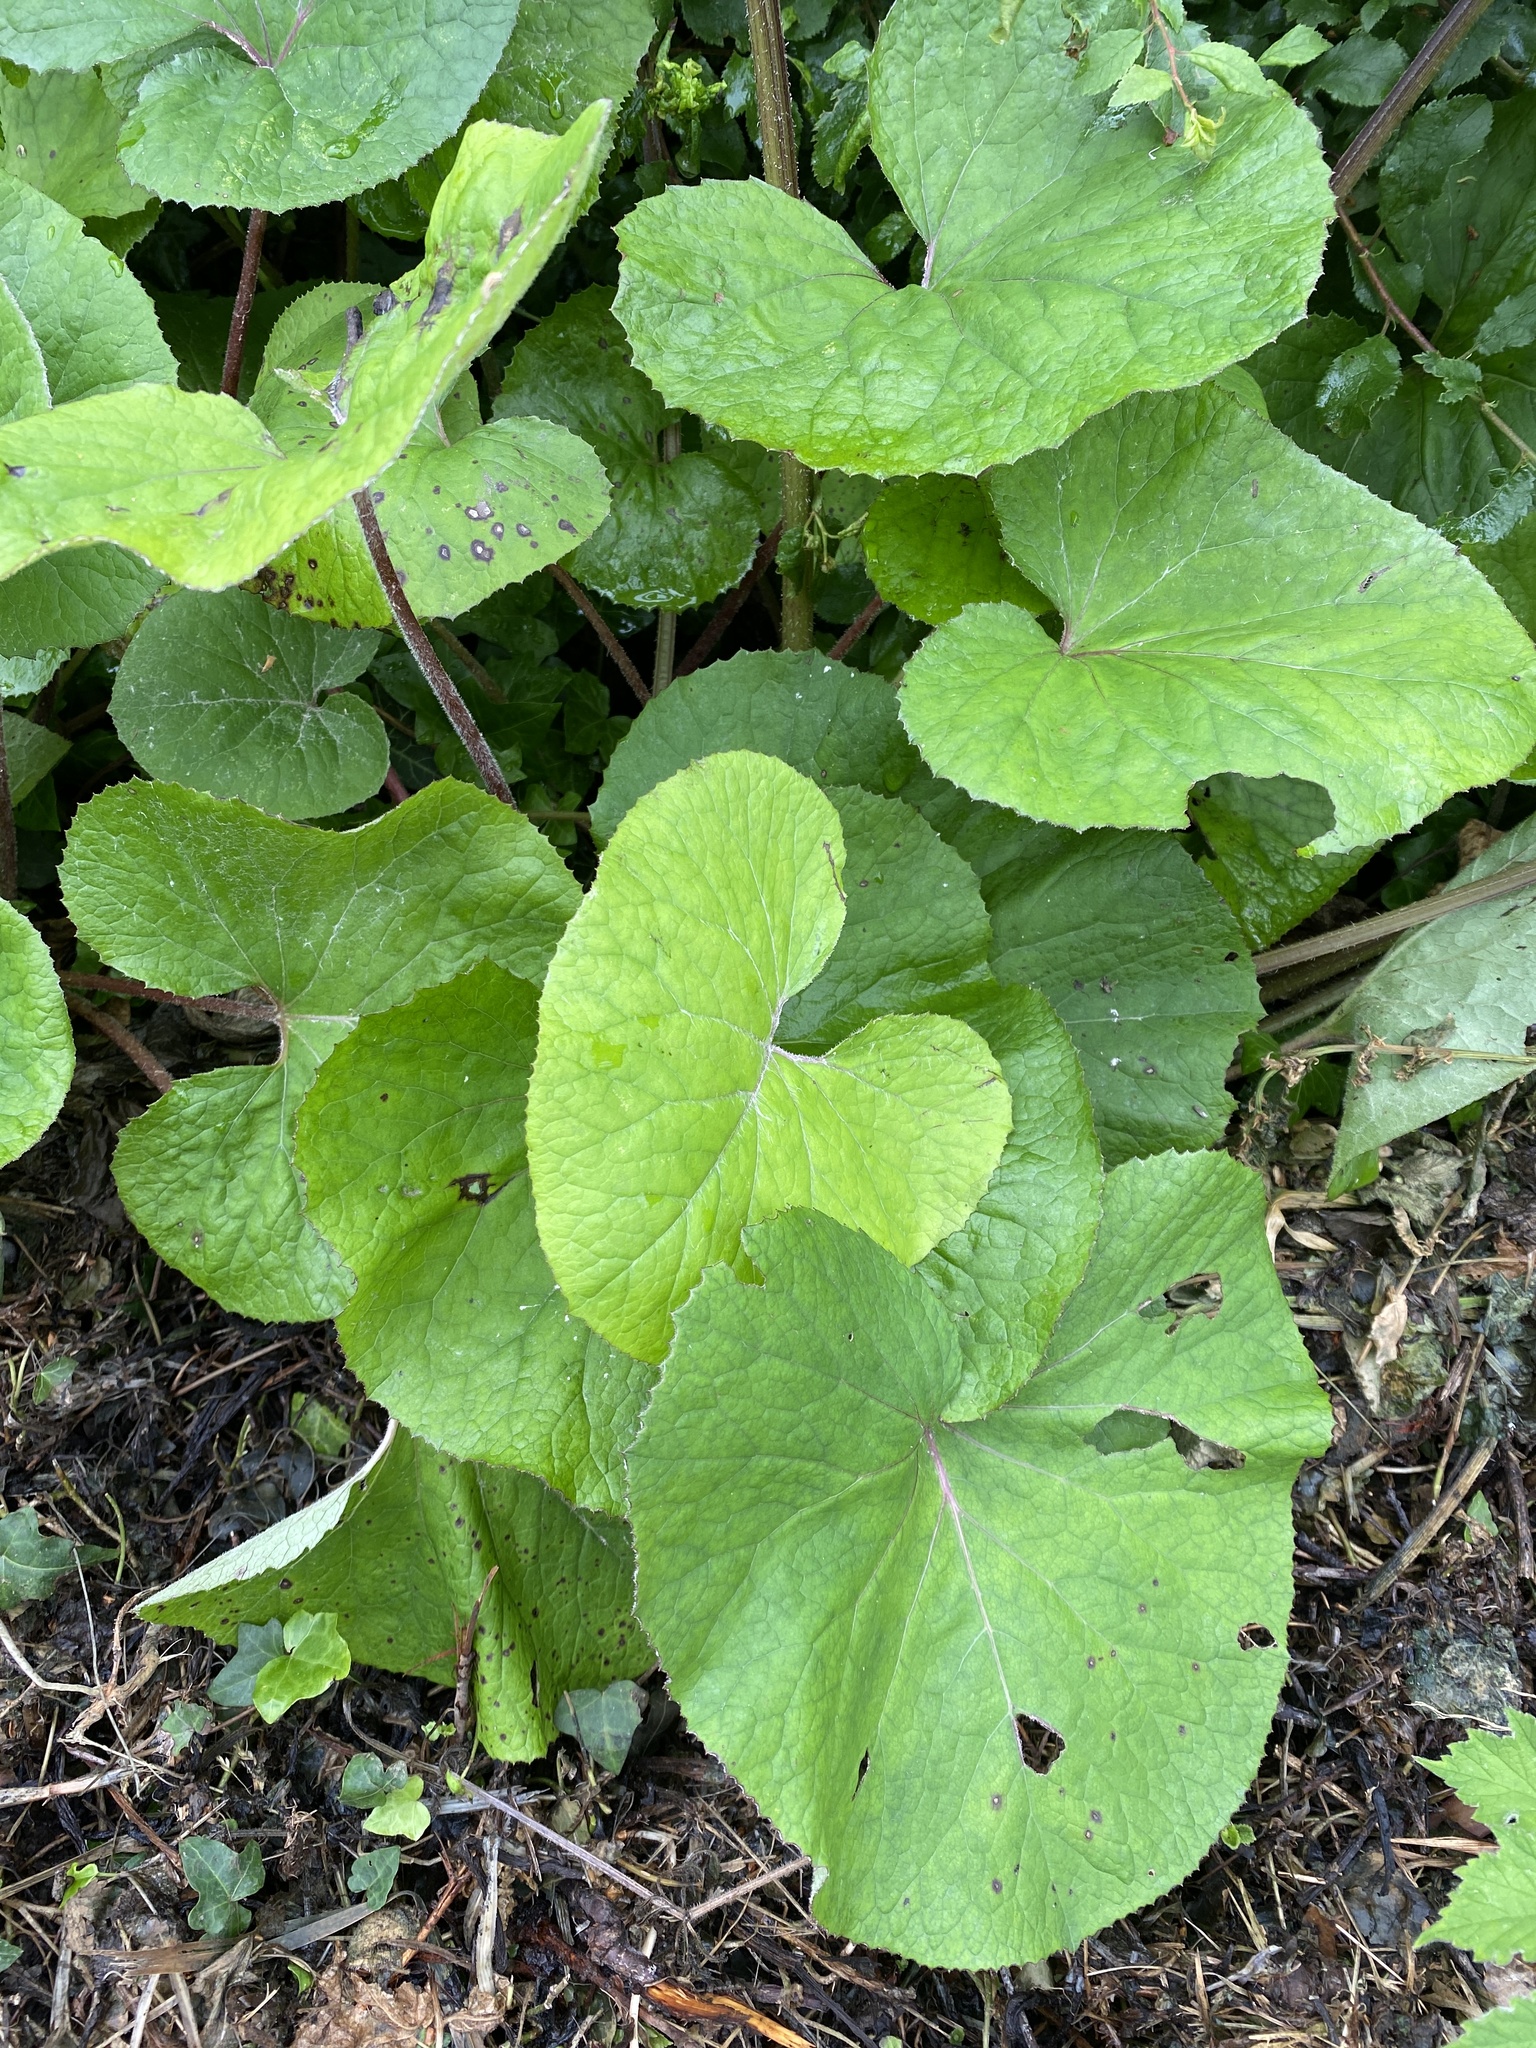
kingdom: Plantae
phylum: Tracheophyta
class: Magnoliopsida
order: Asterales
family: Asteraceae
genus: Petasites
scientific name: Petasites pyrenaicus
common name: Winter heliotrope
